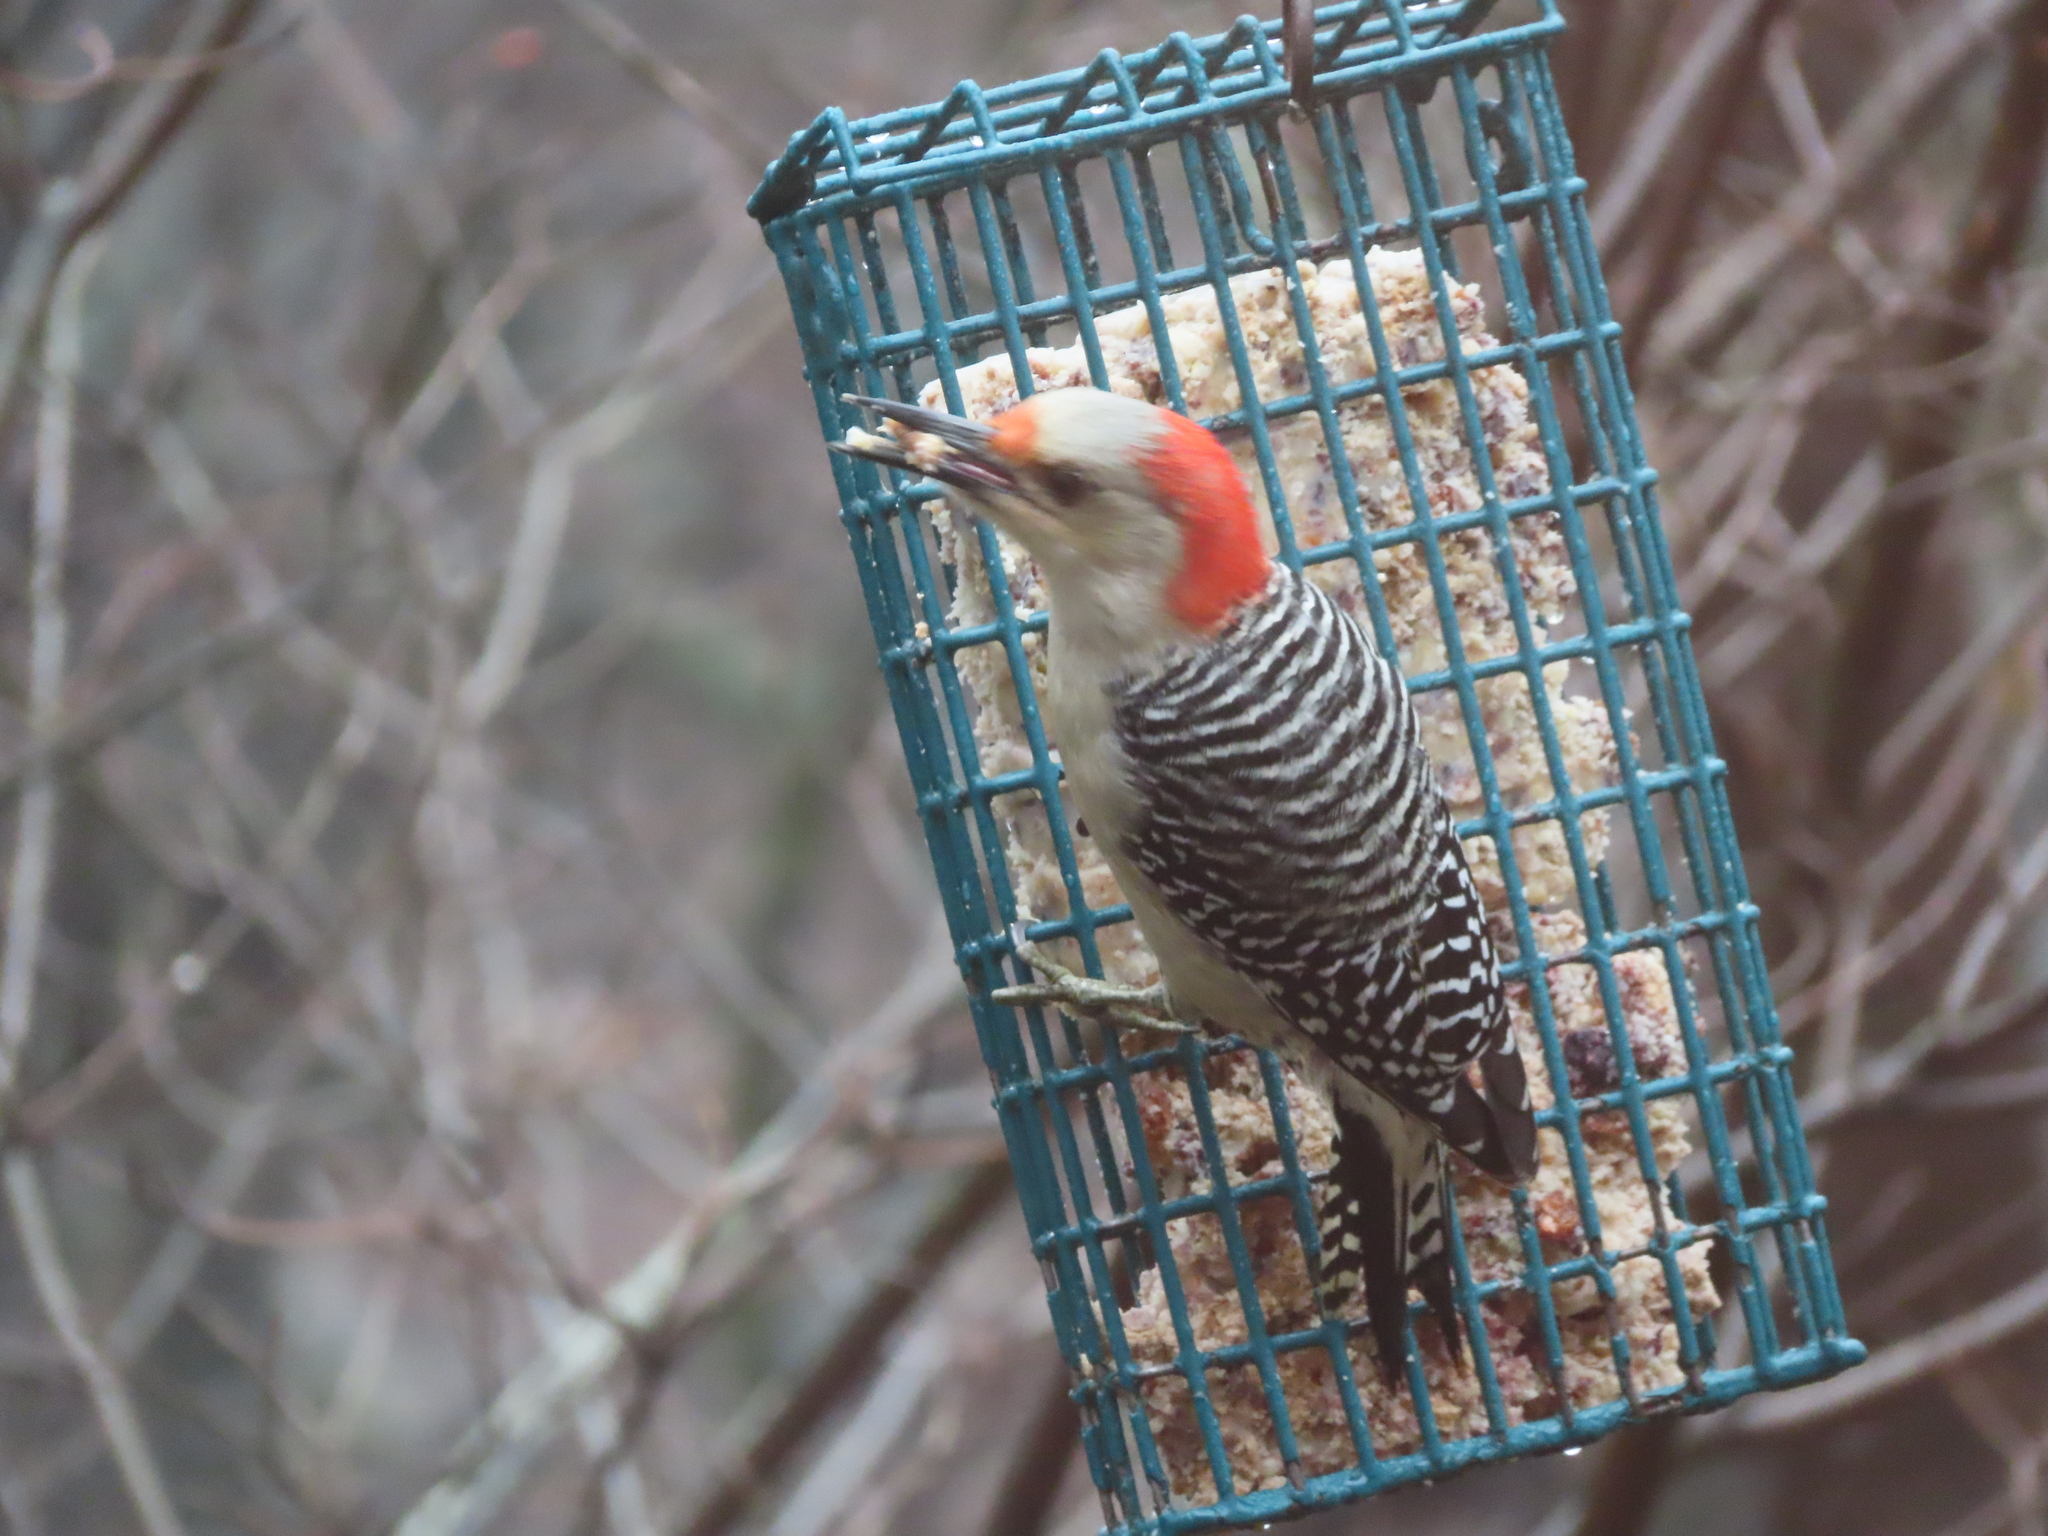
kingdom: Animalia
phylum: Chordata
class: Aves
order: Piciformes
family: Picidae
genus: Melanerpes
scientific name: Melanerpes carolinus
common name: Red-bellied woodpecker
